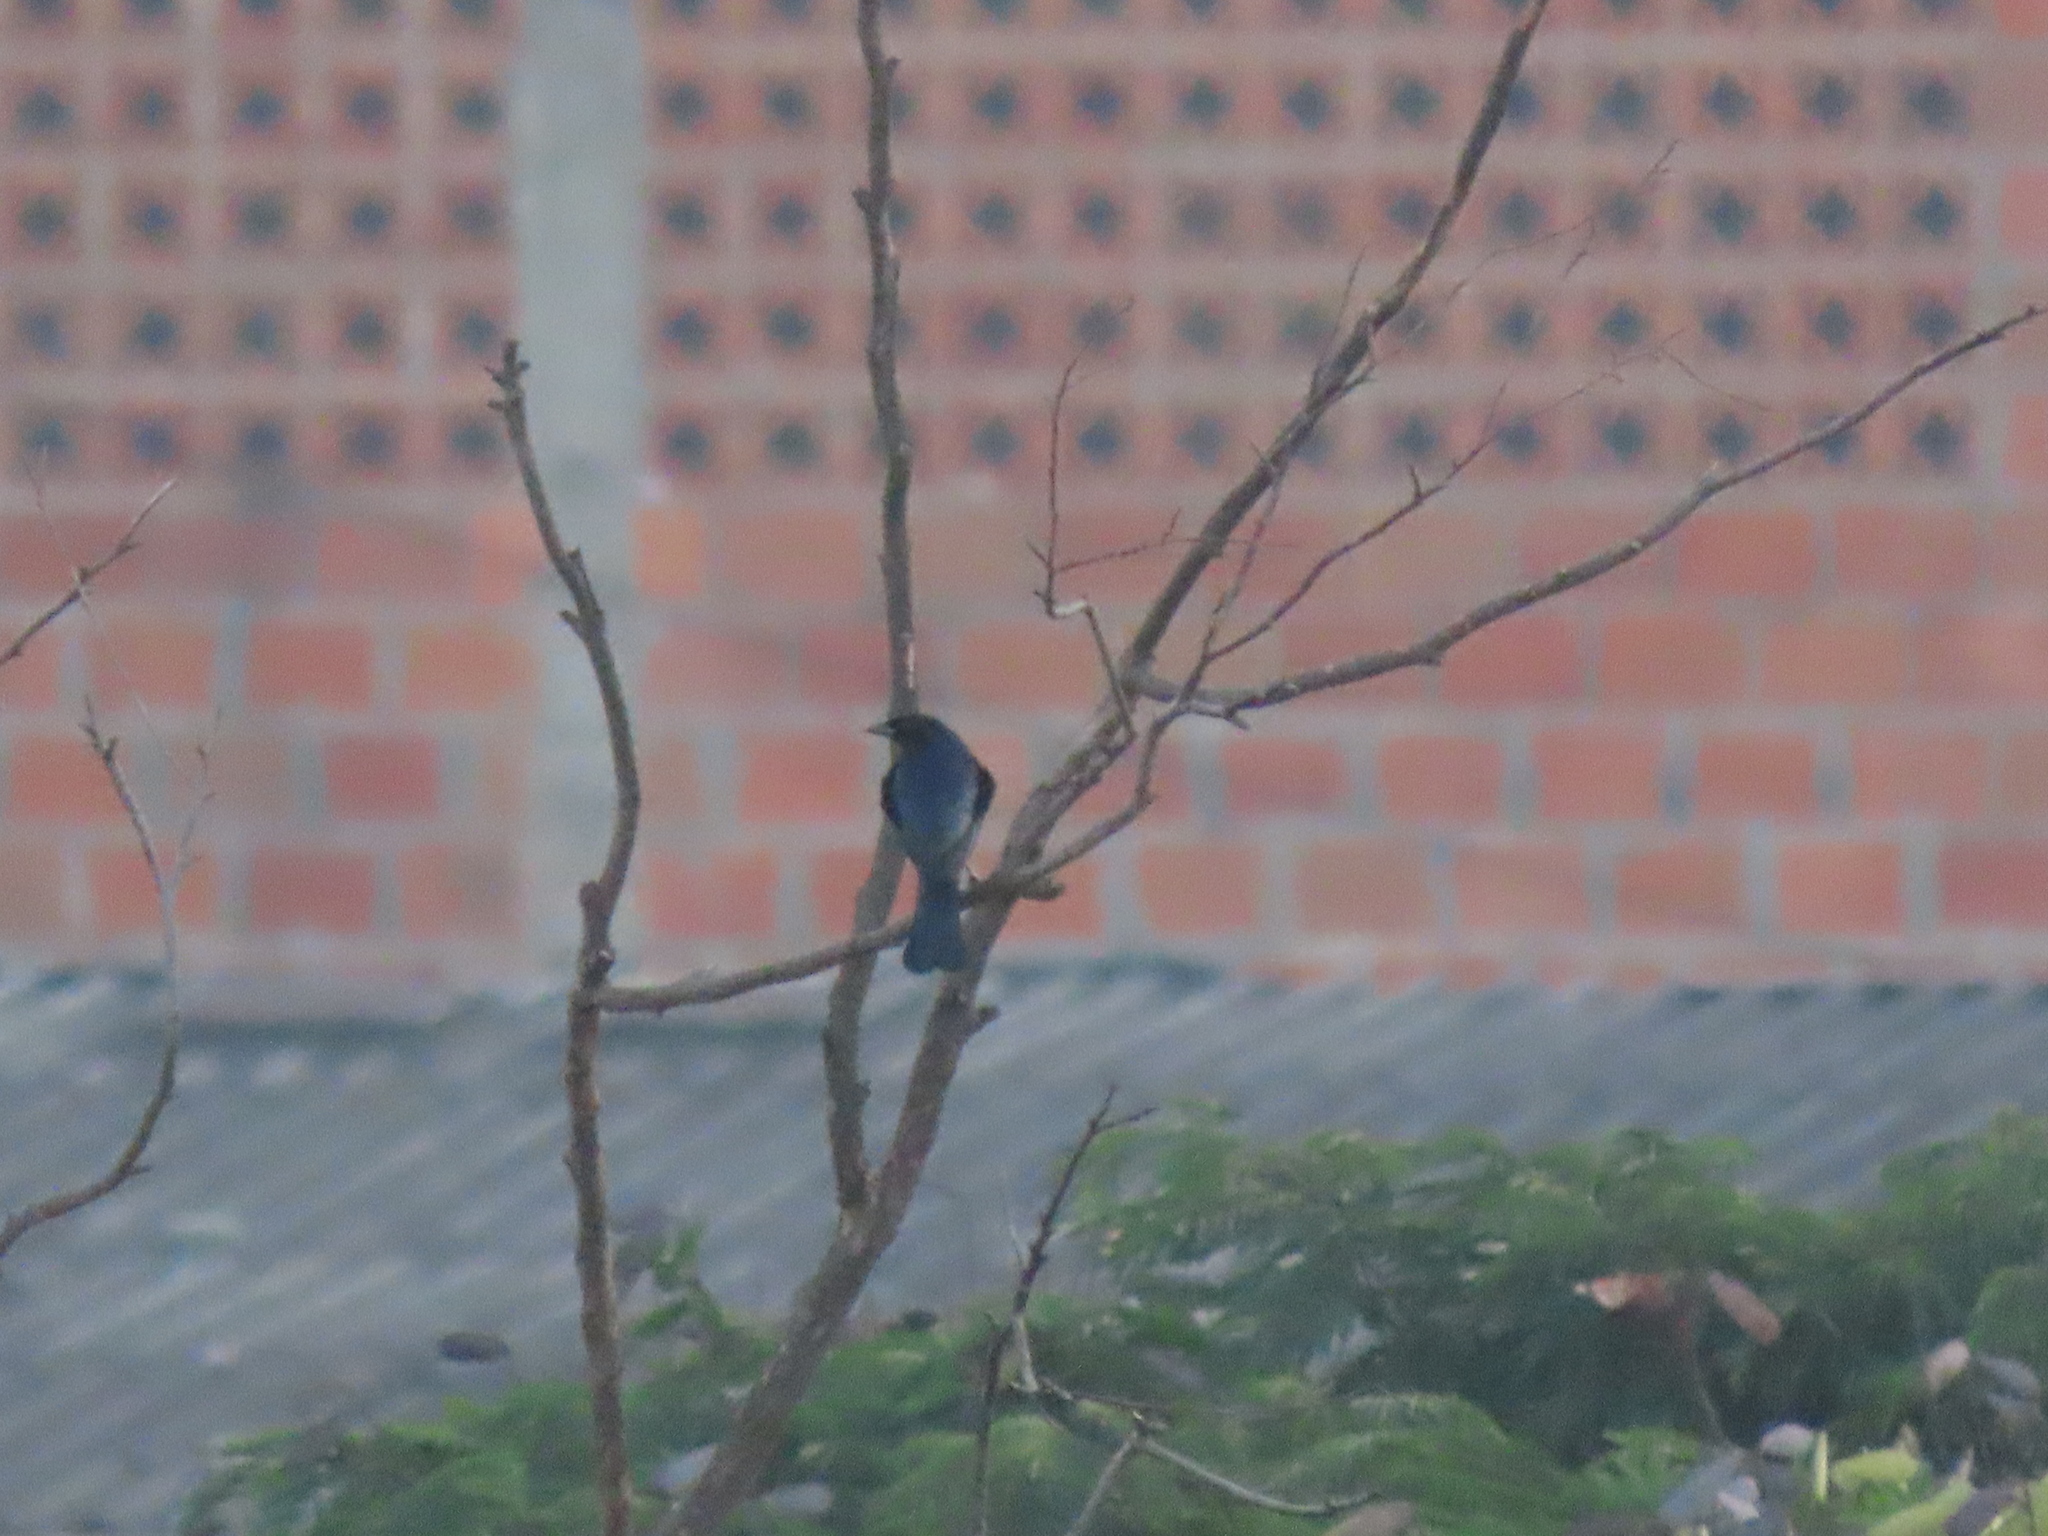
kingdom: Animalia
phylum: Chordata
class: Aves
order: Passeriformes
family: Icteridae
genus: Molothrus
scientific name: Molothrus bonariensis
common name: Shiny cowbird
